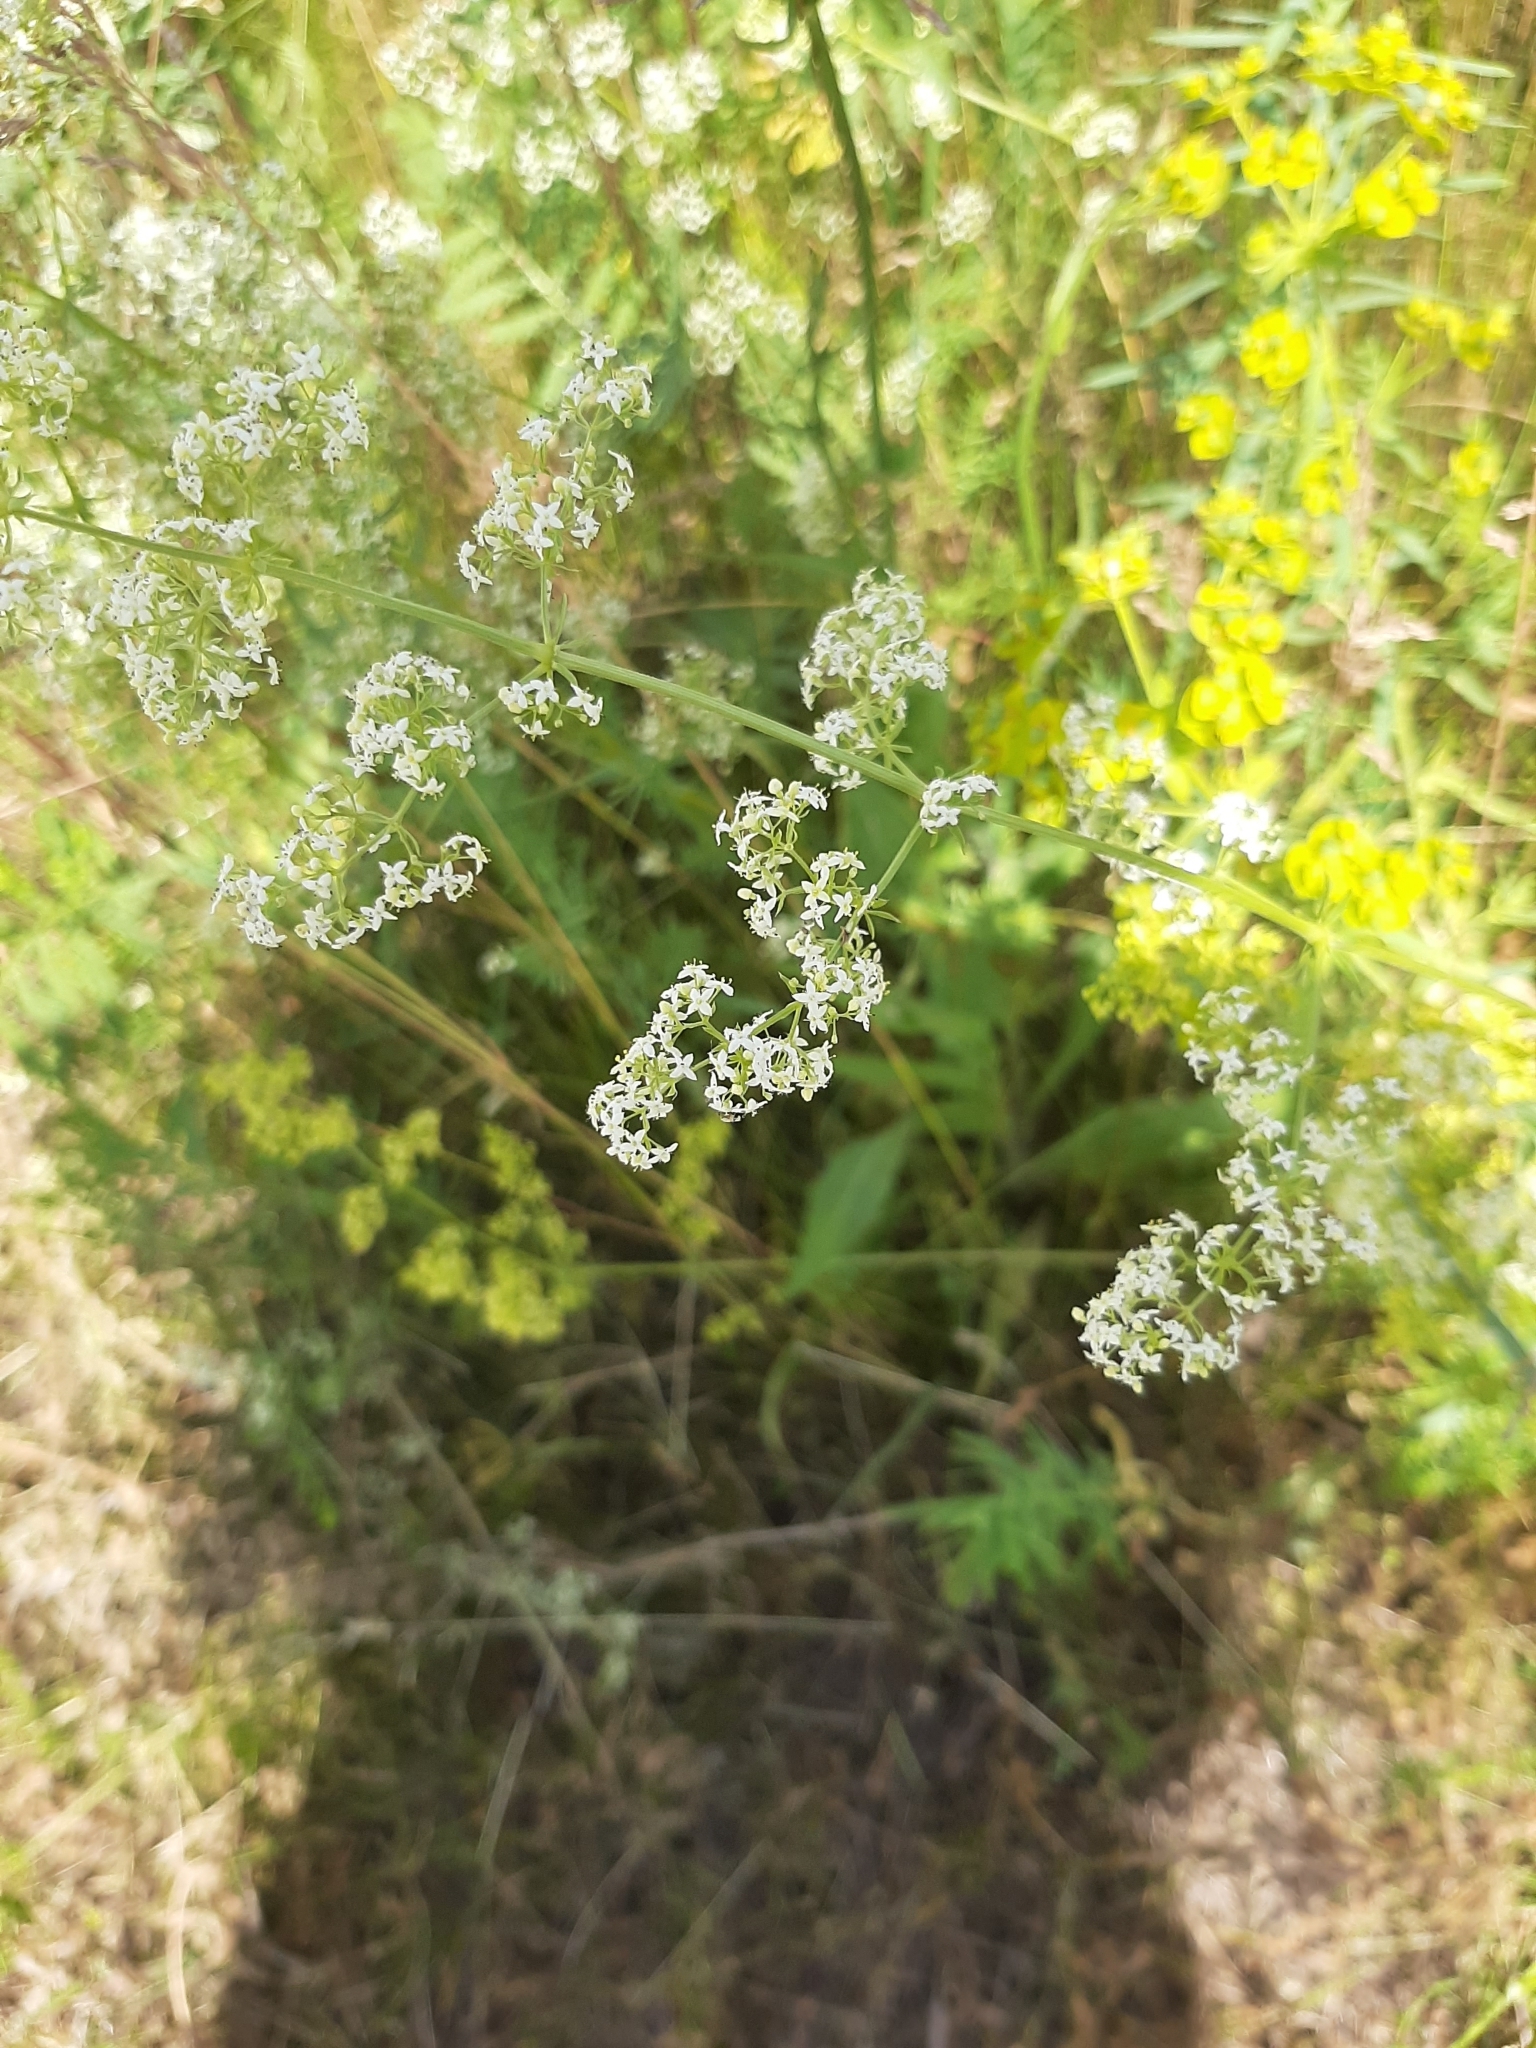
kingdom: Plantae
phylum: Tracheophyta
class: Magnoliopsida
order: Gentianales
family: Rubiaceae
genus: Galium
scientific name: Galium mollugo
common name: Hedge bedstraw
